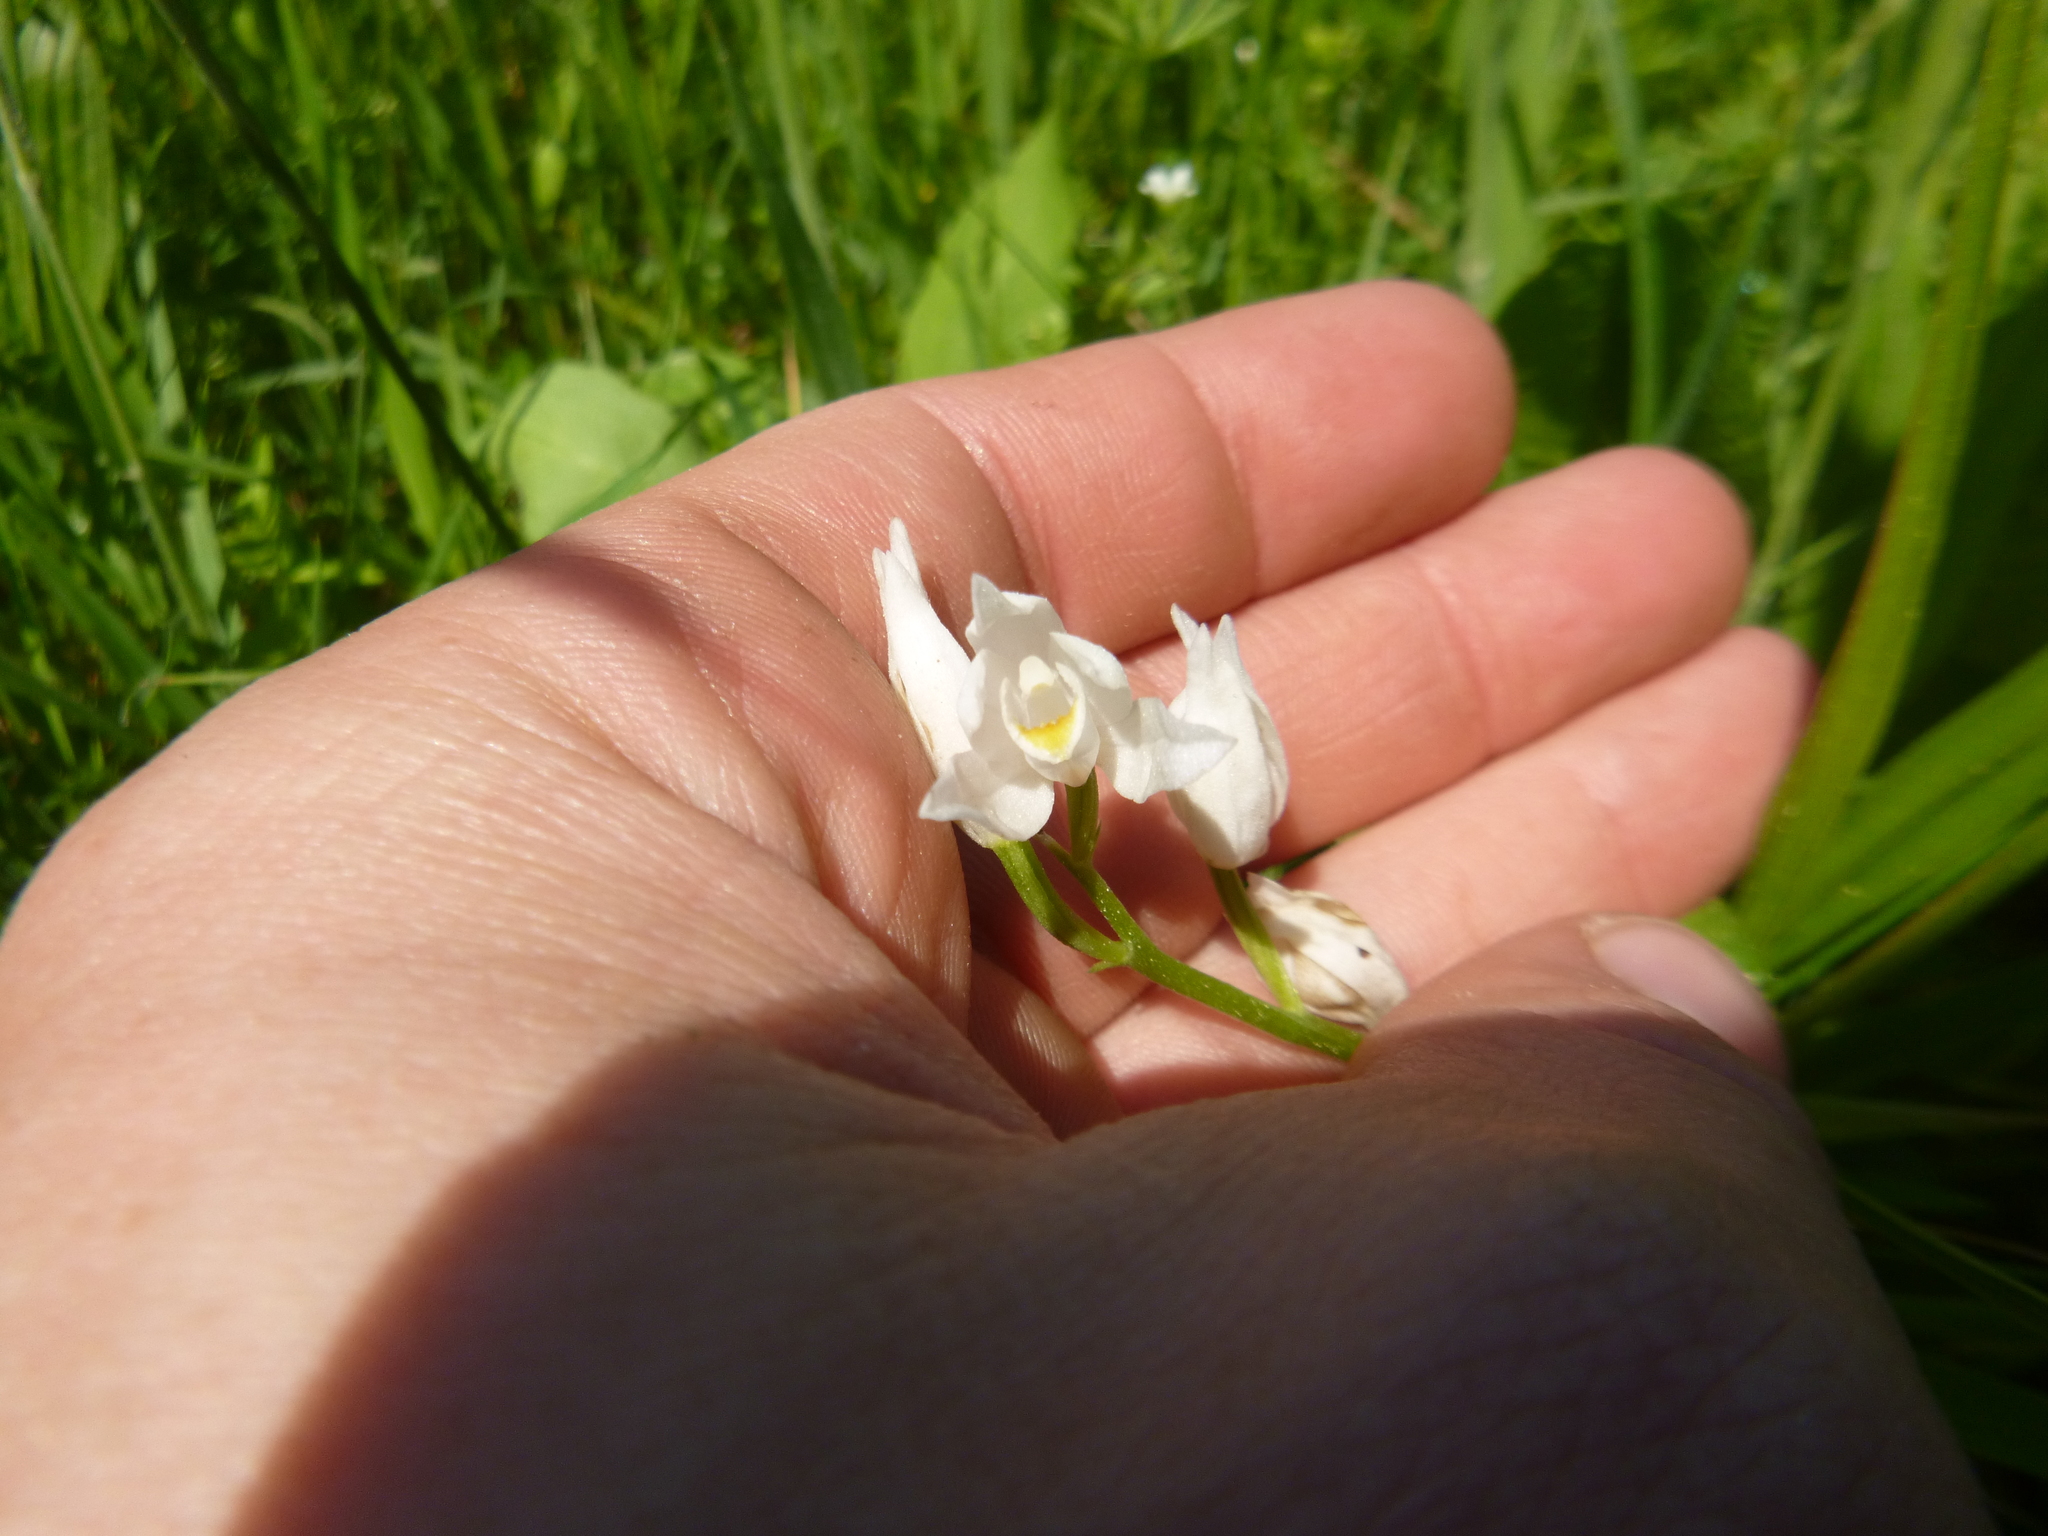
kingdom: Plantae
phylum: Tracheophyta
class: Liliopsida
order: Asparagales
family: Orchidaceae
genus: Cephalanthera
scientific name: Cephalanthera longifolia
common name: Narrow-leaved helleborine
